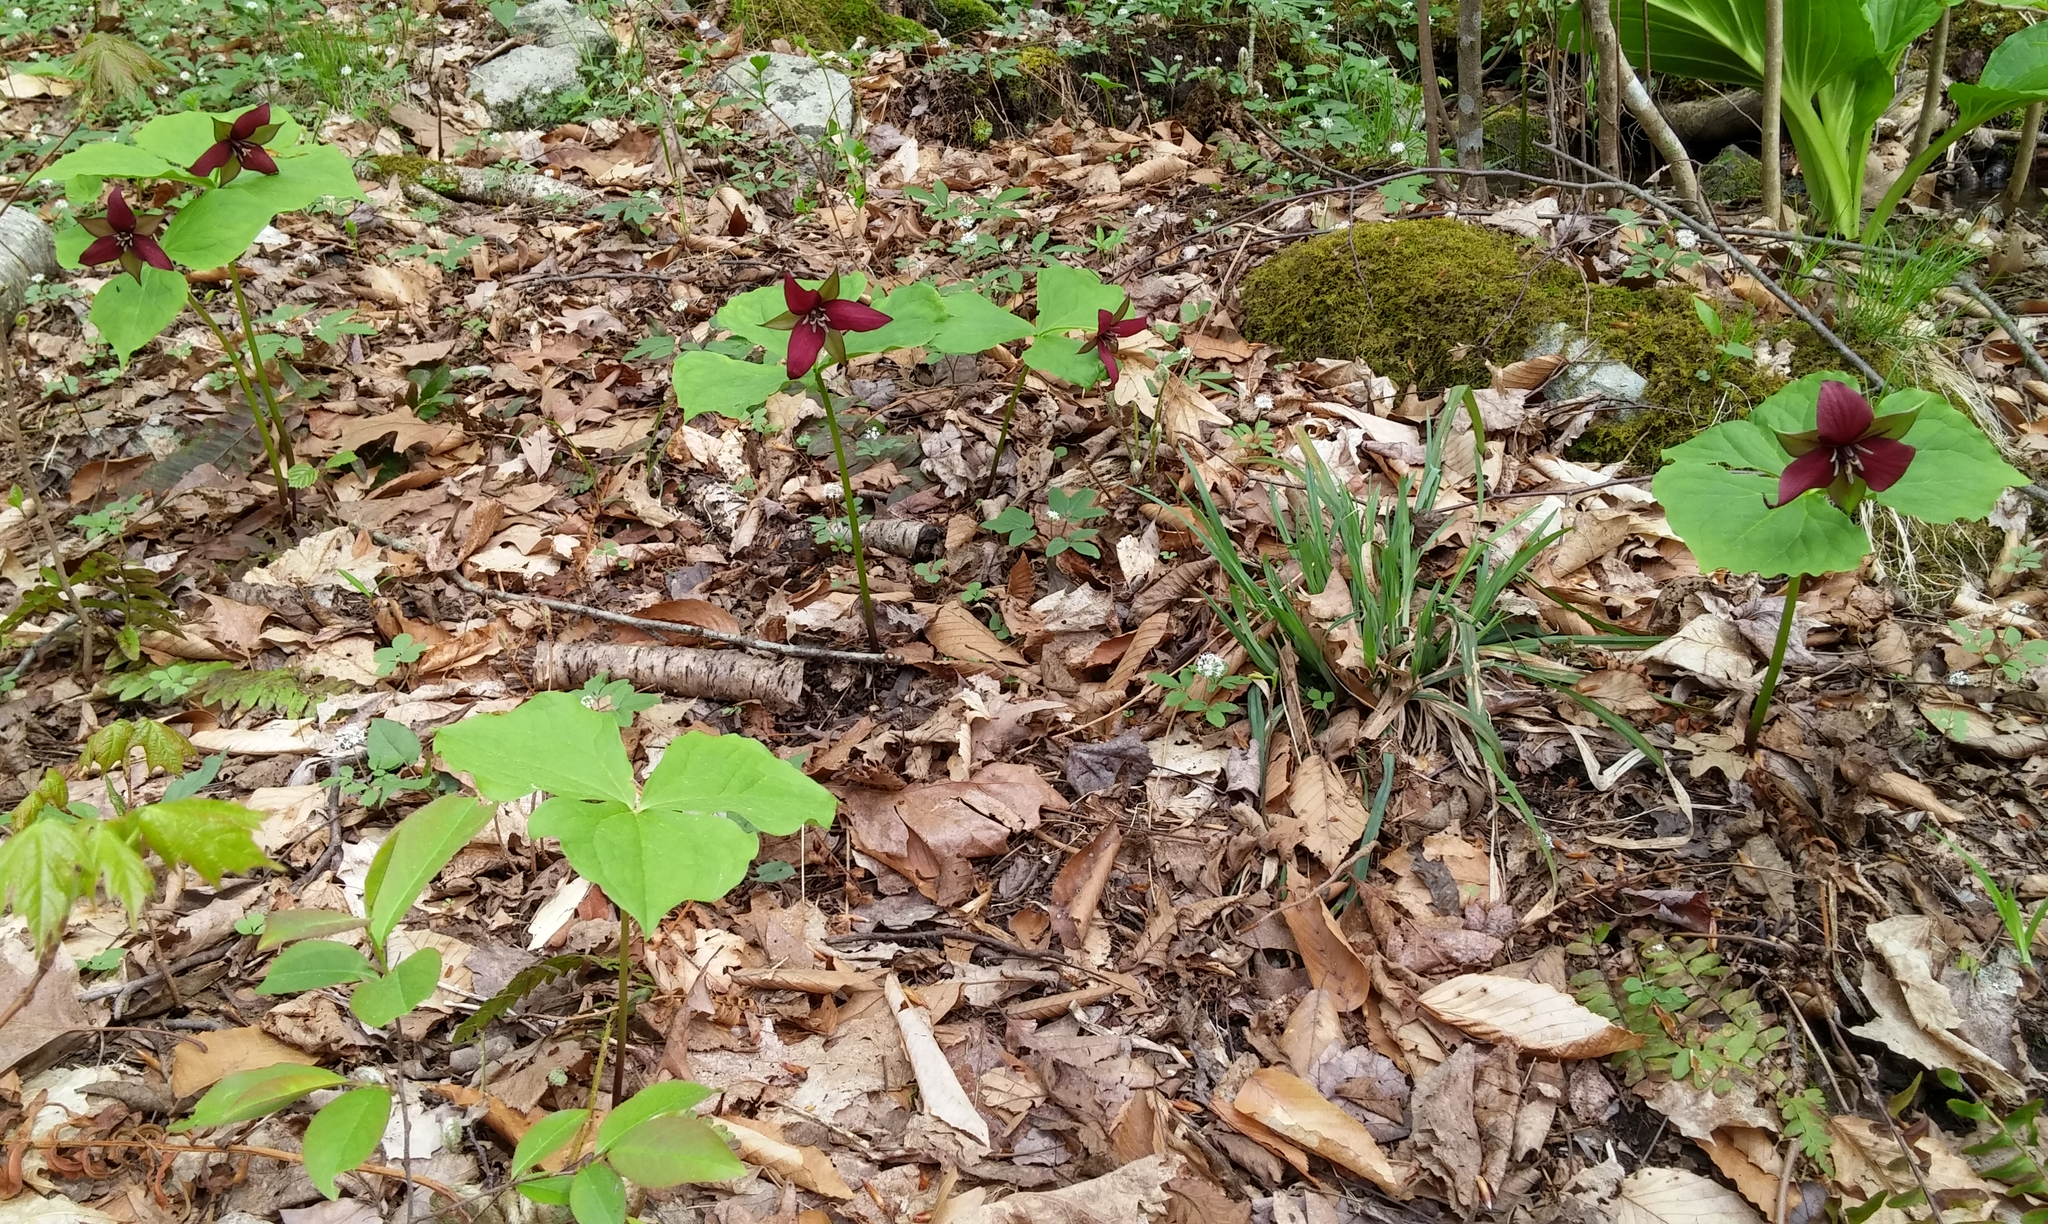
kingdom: Plantae
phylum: Tracheophyta
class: Liliopsida
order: Liliales
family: Melanthiaceae
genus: Trillium
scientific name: Trillium erectum
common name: Purple trillium
